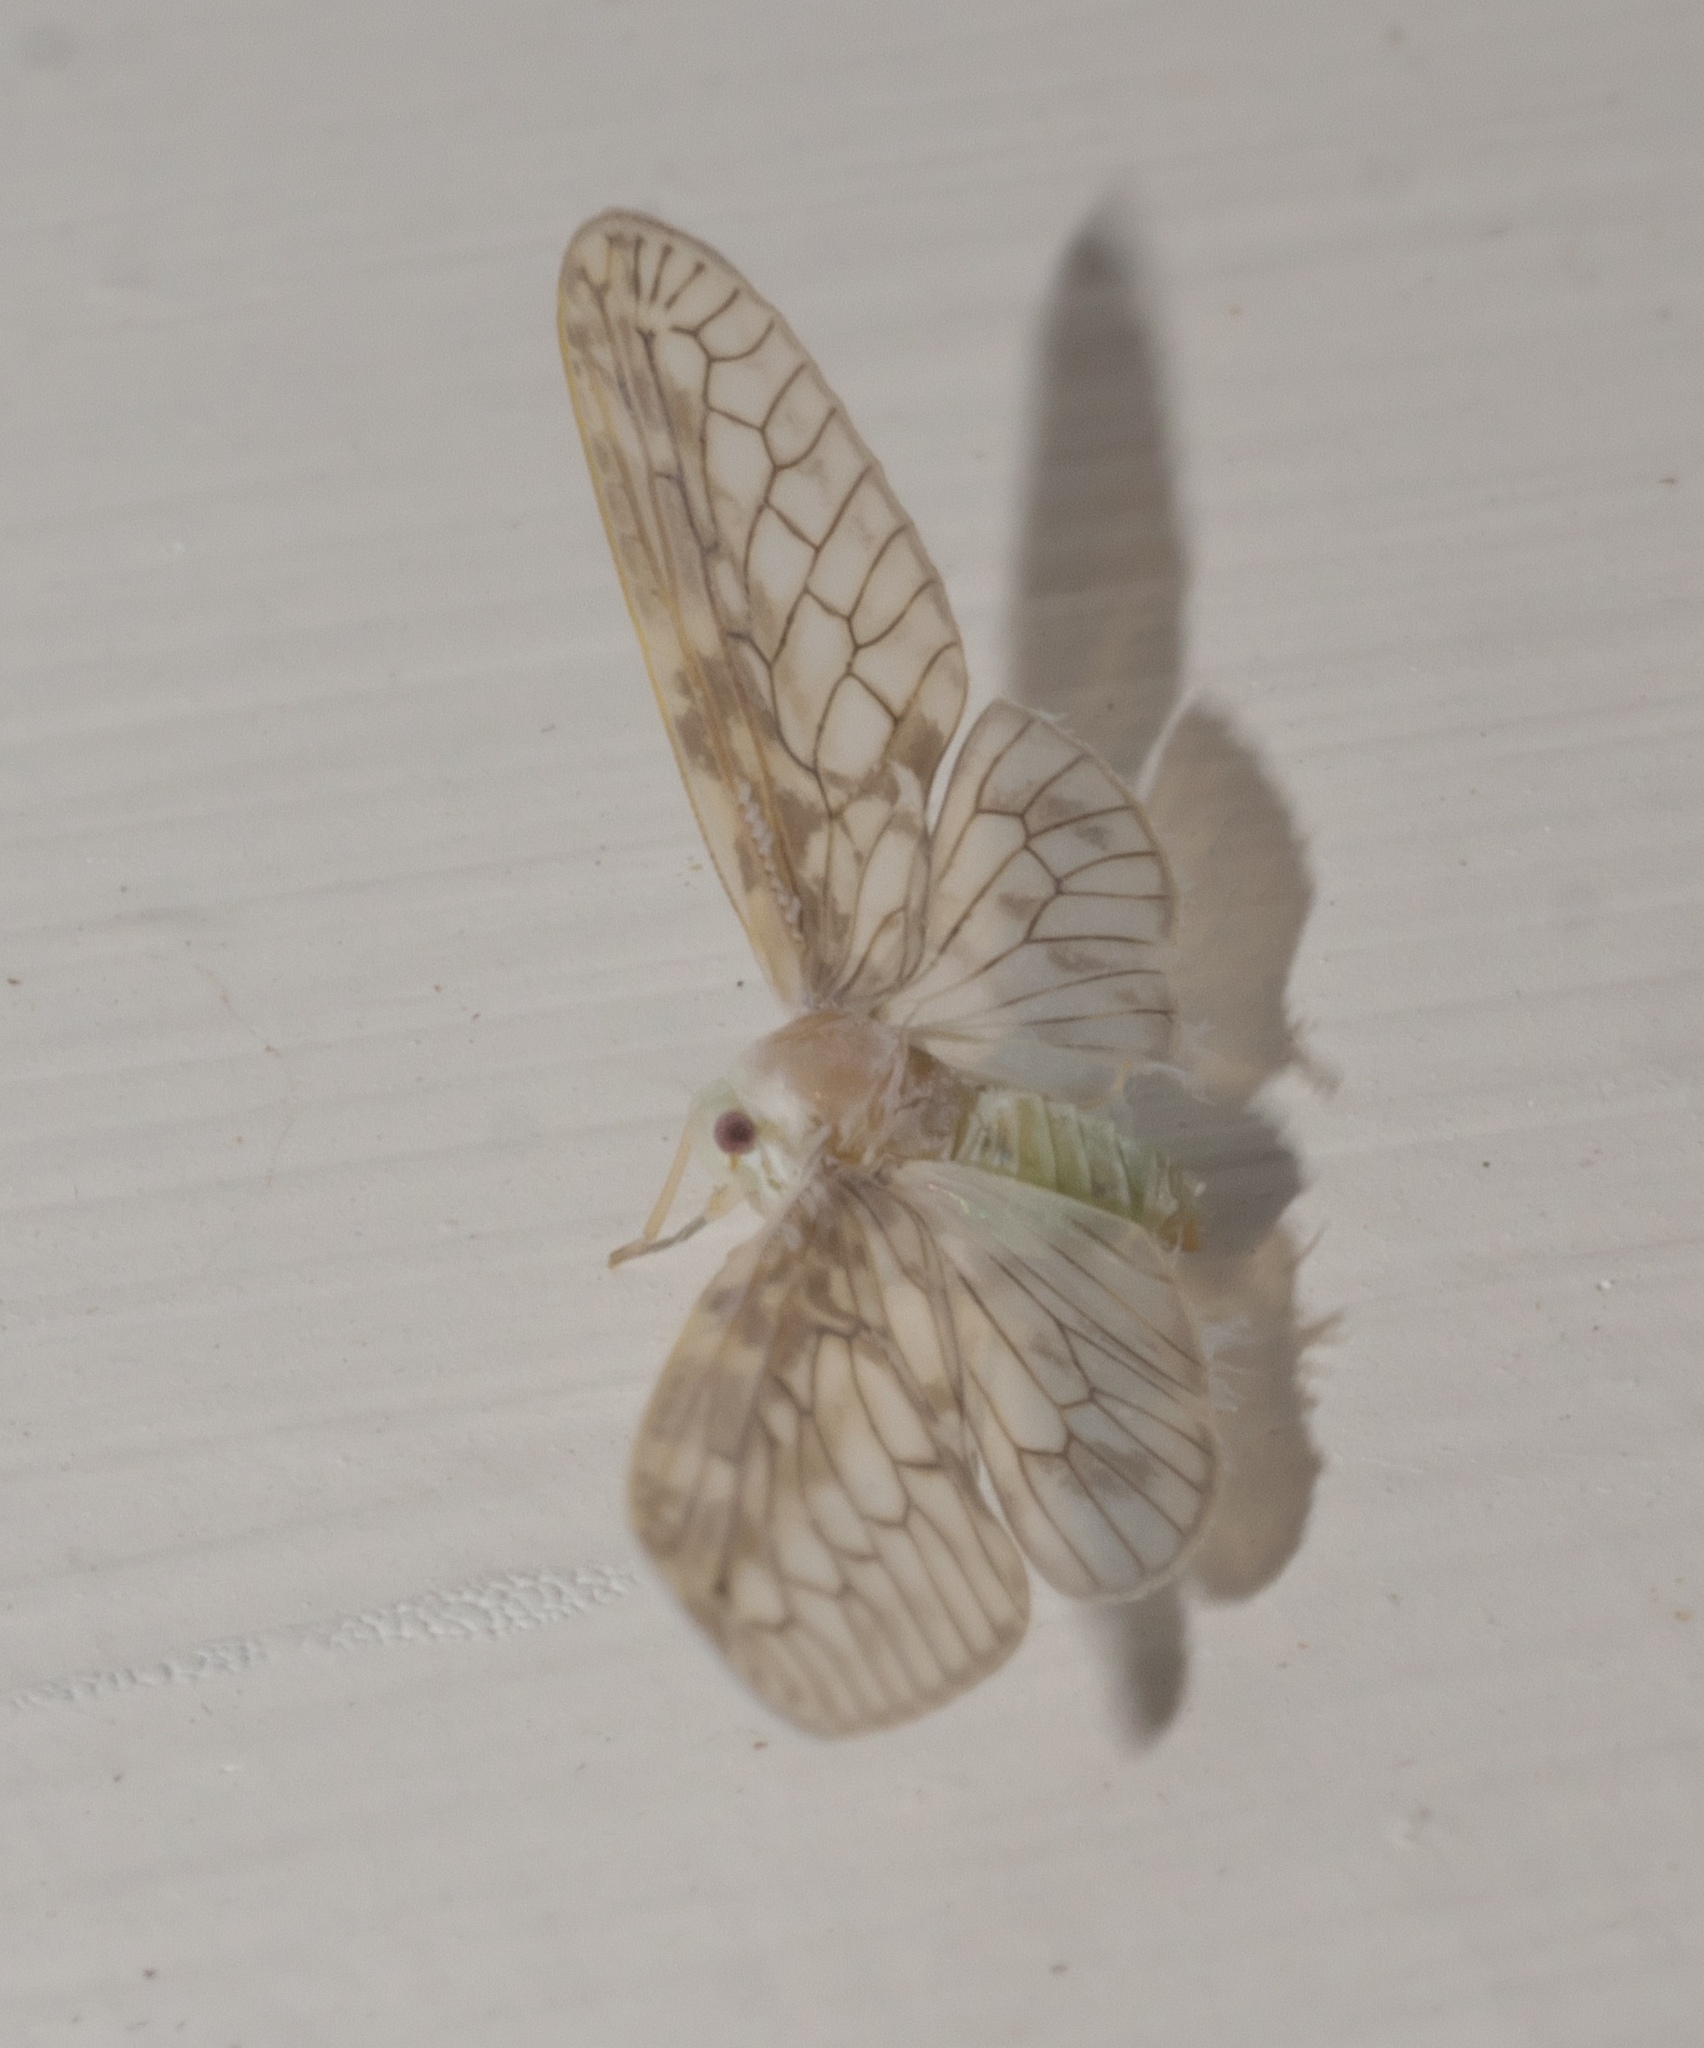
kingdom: Animalia
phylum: Arthropoda
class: Insecta
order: Hemiptera
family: Derbidae
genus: Paramysidia
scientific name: Paramysidia mississippiensis
